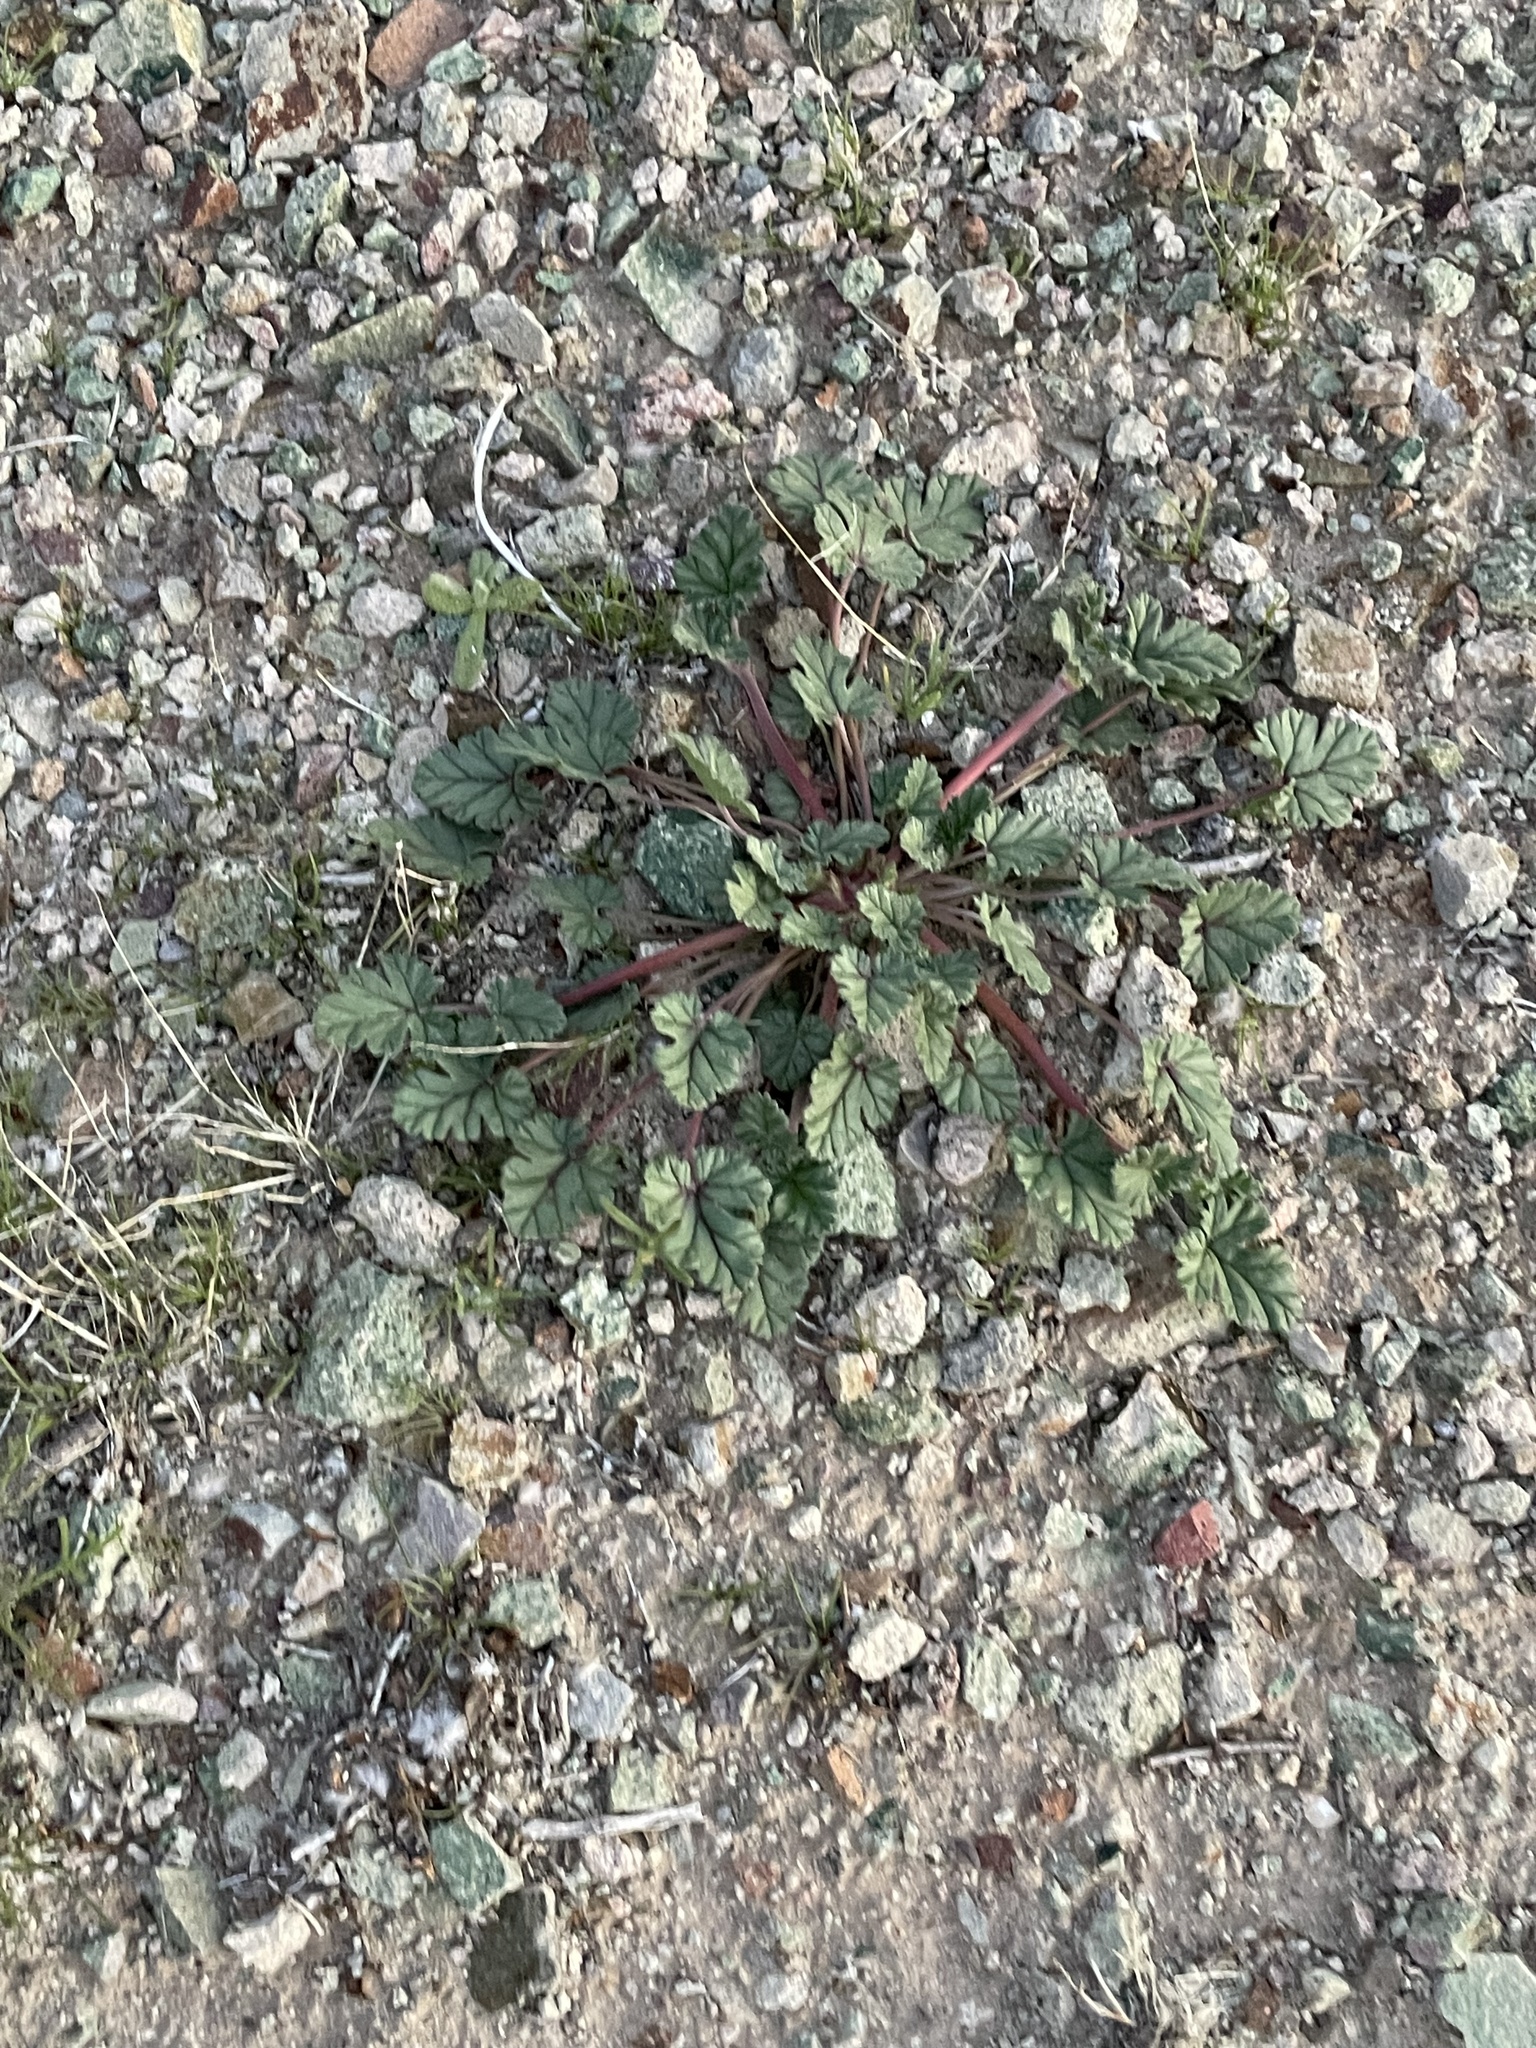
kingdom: Plantae
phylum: Tracheophyta
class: Magnoliopsida
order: Geraniales
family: Geraniaceae
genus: Erodium
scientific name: Erodium texanum
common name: Texas stork's-bill
